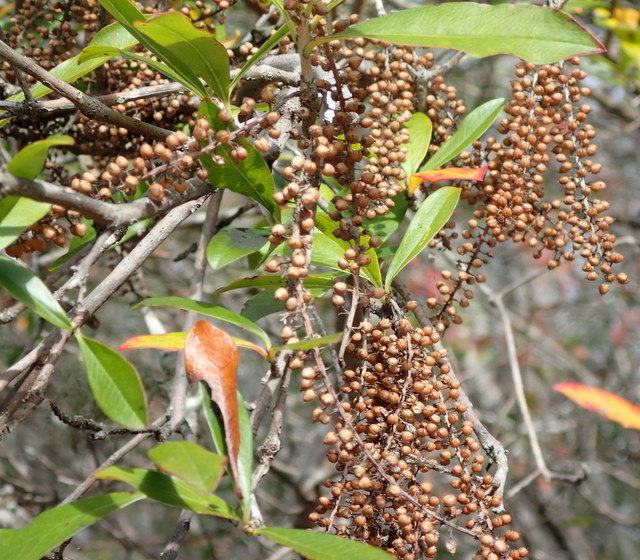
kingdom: Plantae
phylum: Tracheophyta
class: Magnoliopsida
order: Ericales
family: Cyrillaceae
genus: Cyrilla
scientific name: Cyrilla racemiflora
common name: Black titi
